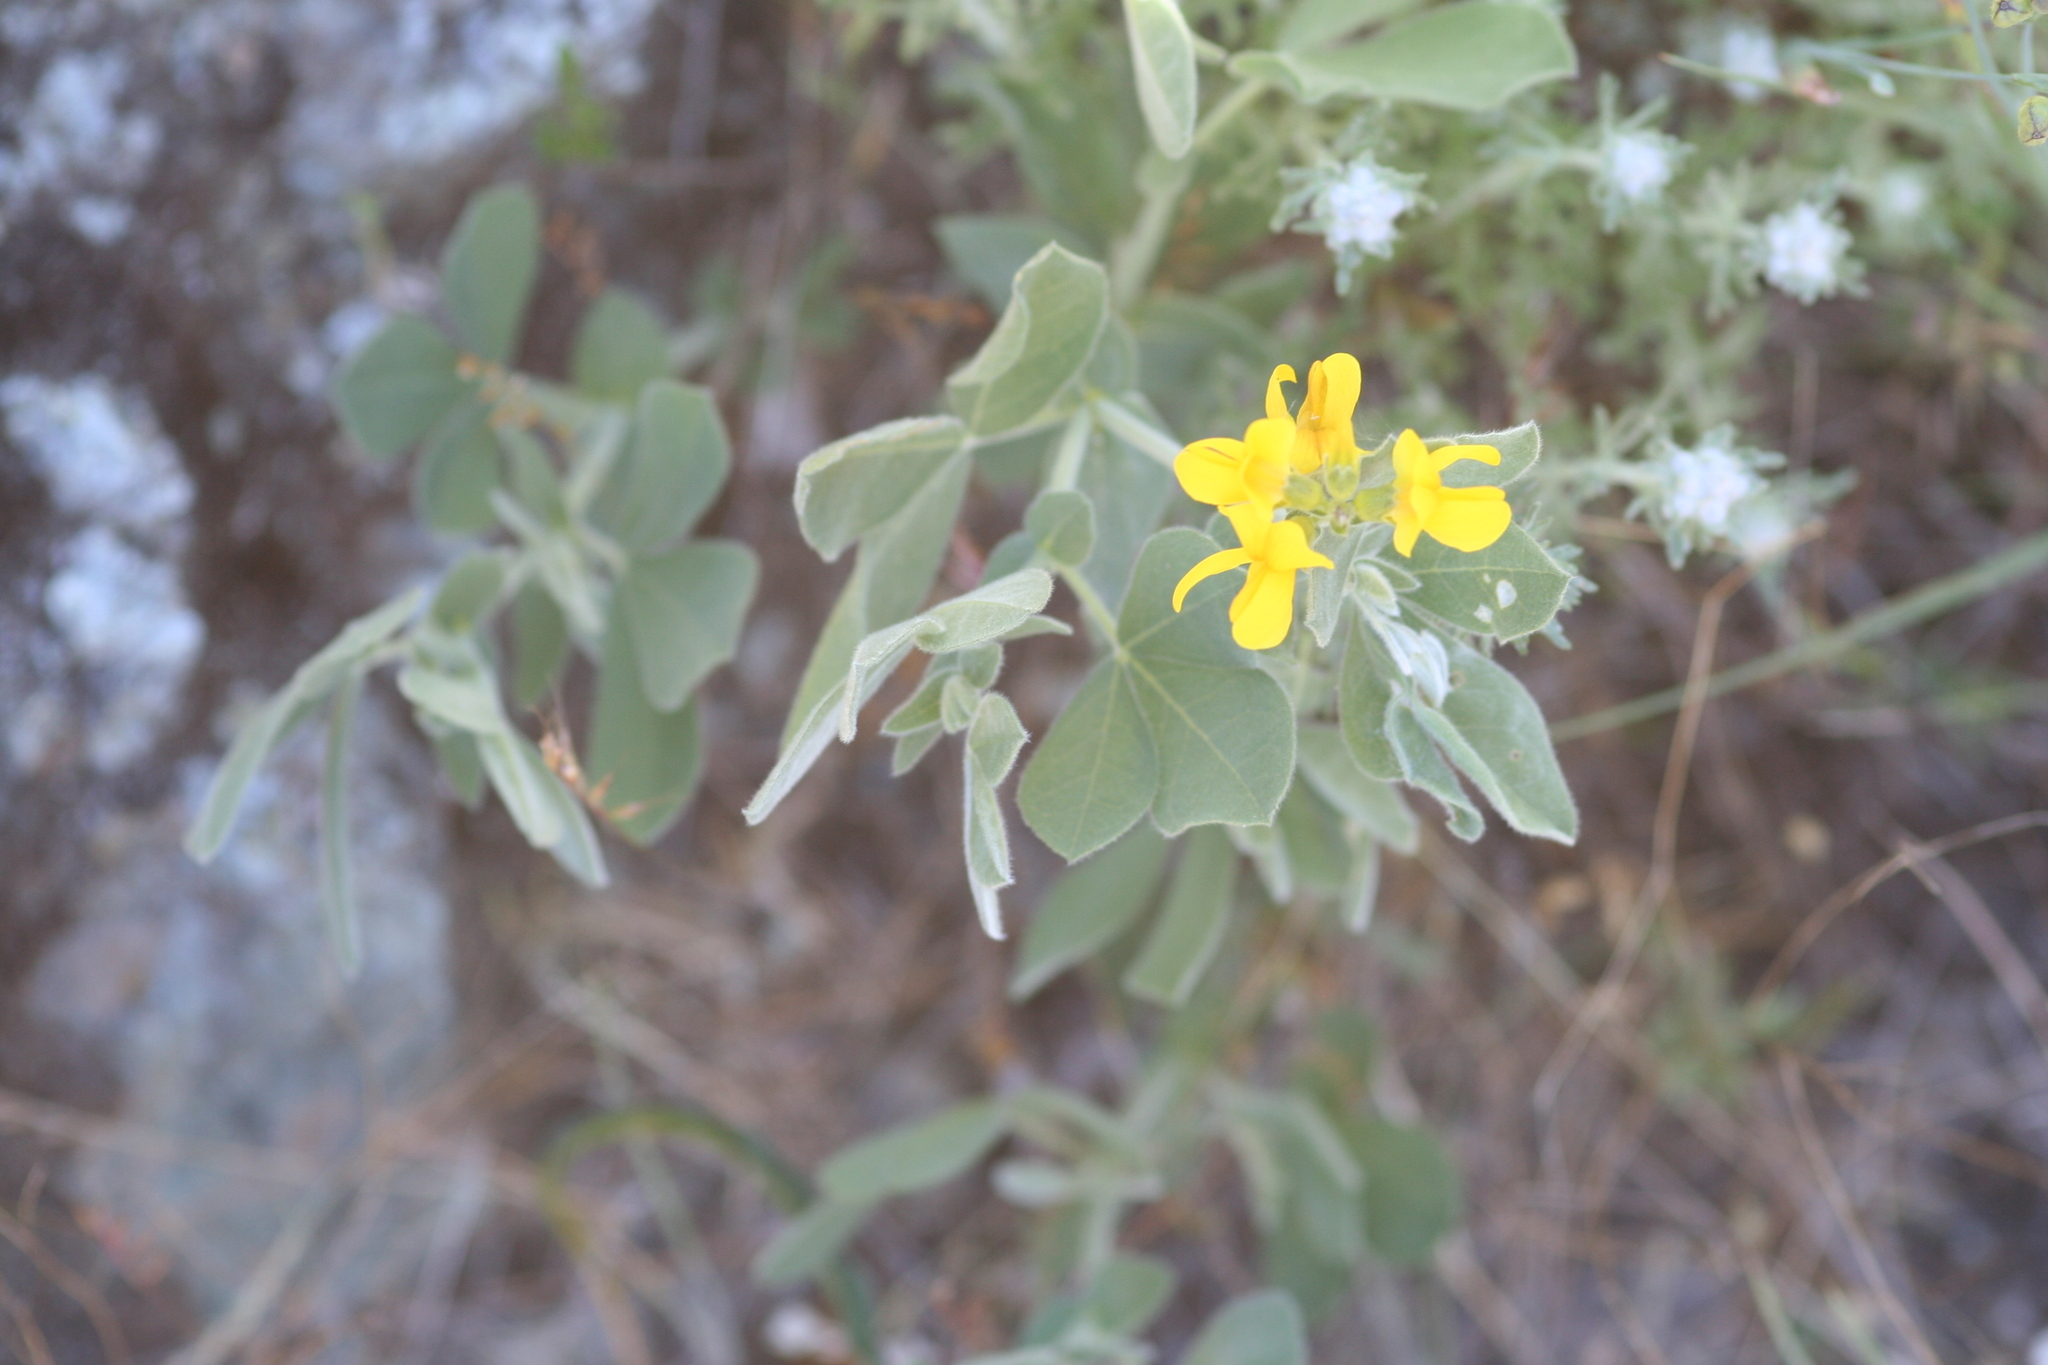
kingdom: Plantae
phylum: Tracheophyta
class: Magnoliopsida
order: Fabales
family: Fabaceae
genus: Thermopsis
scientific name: Thermopsis californica
